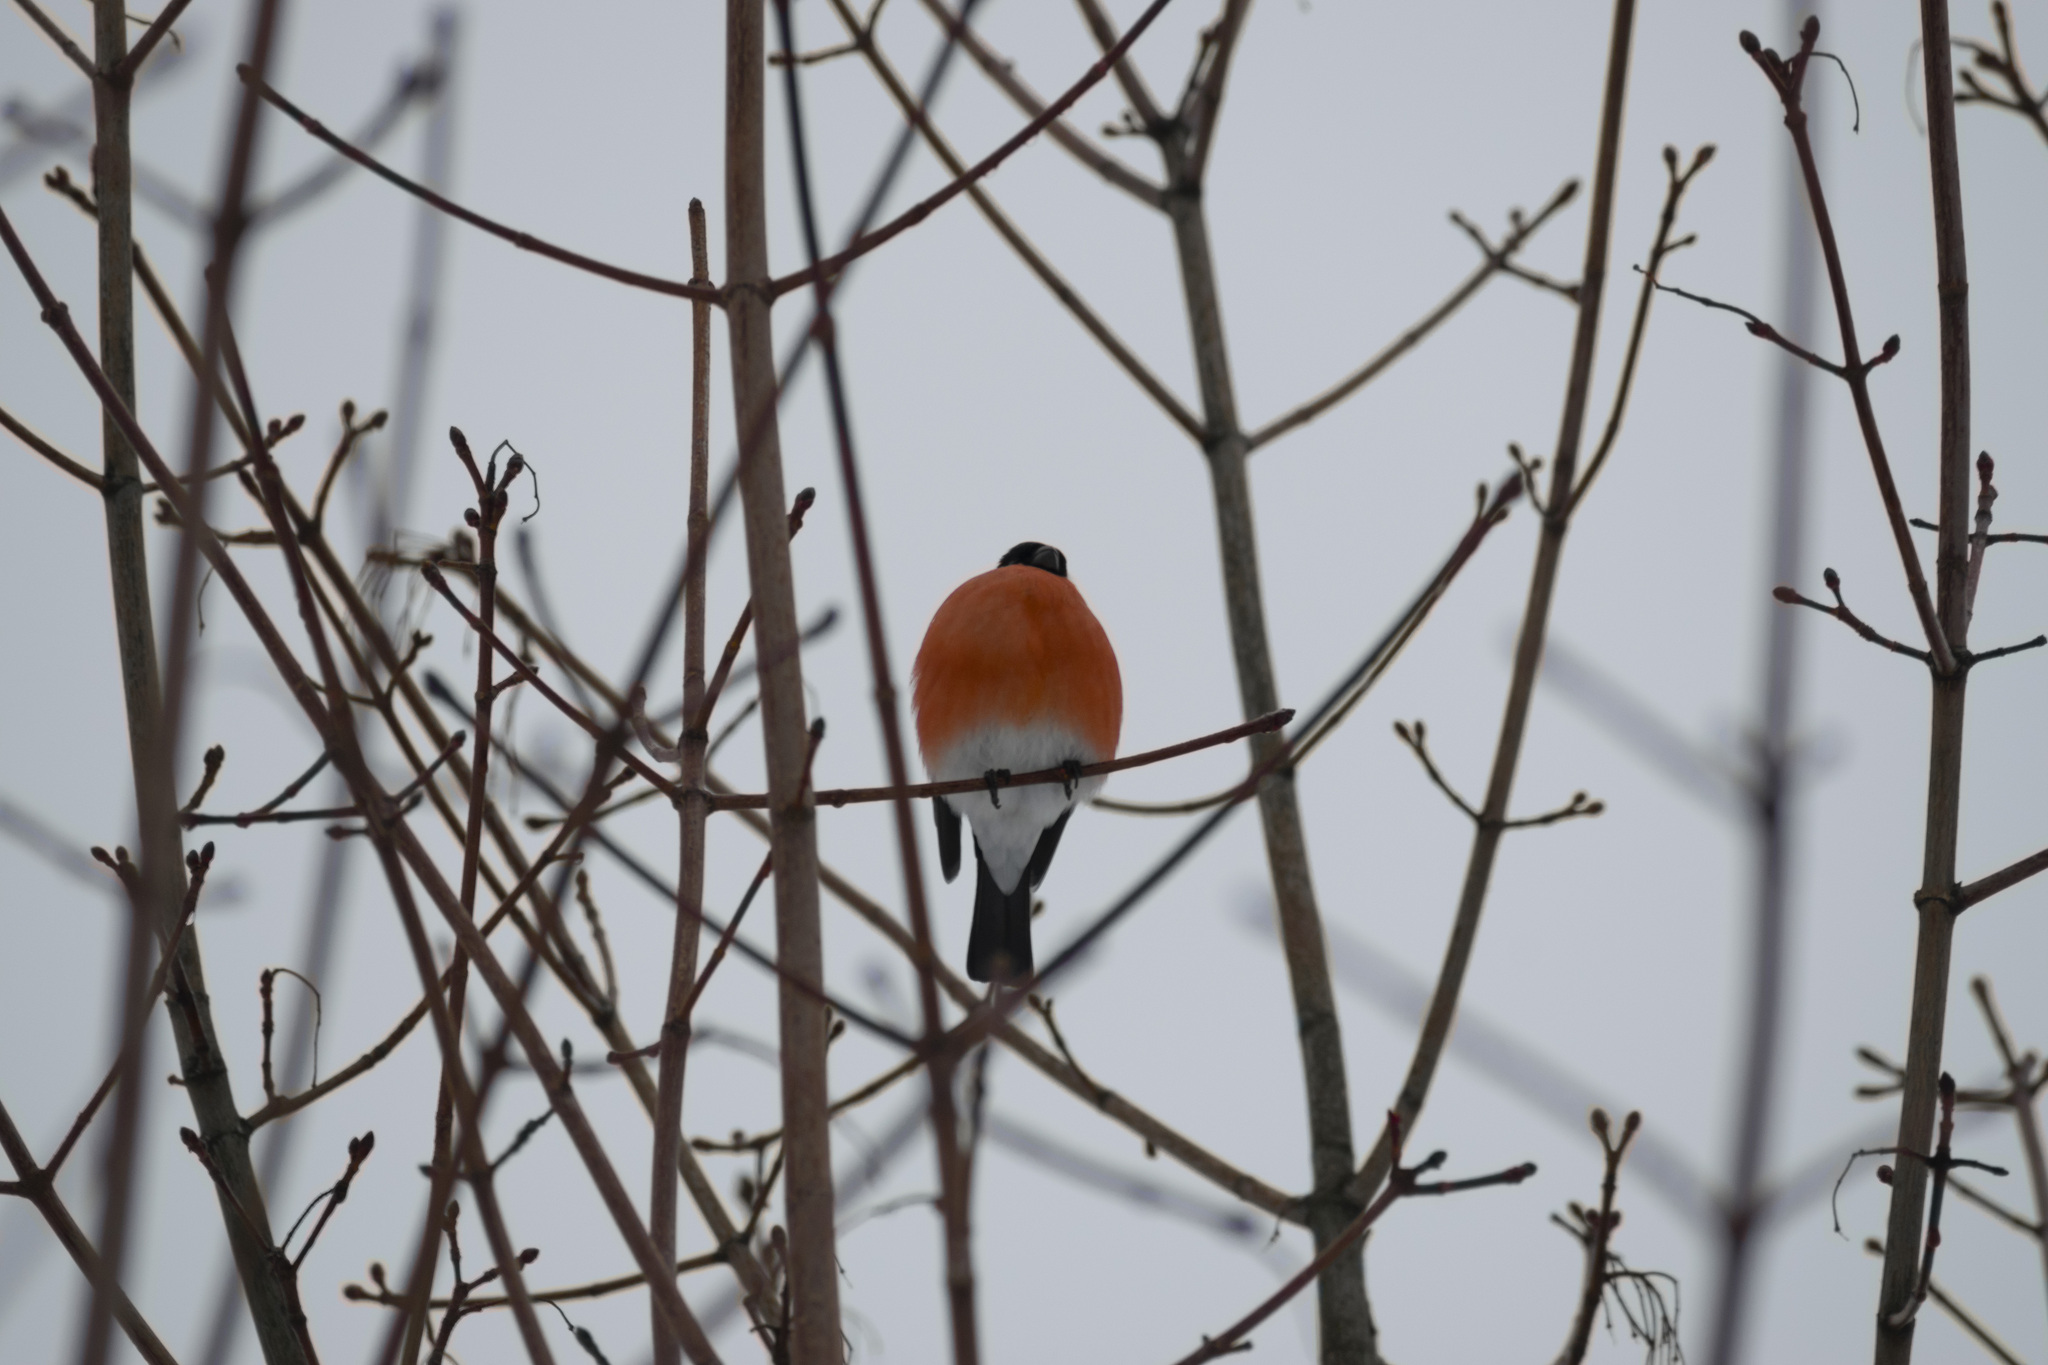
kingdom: Animalia
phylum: Chordata
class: Aves
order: Passeriformes
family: Fringillidae
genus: Pyrrhula
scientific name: Pyrrhula pyrrhula
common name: Eurasian bullfinch
